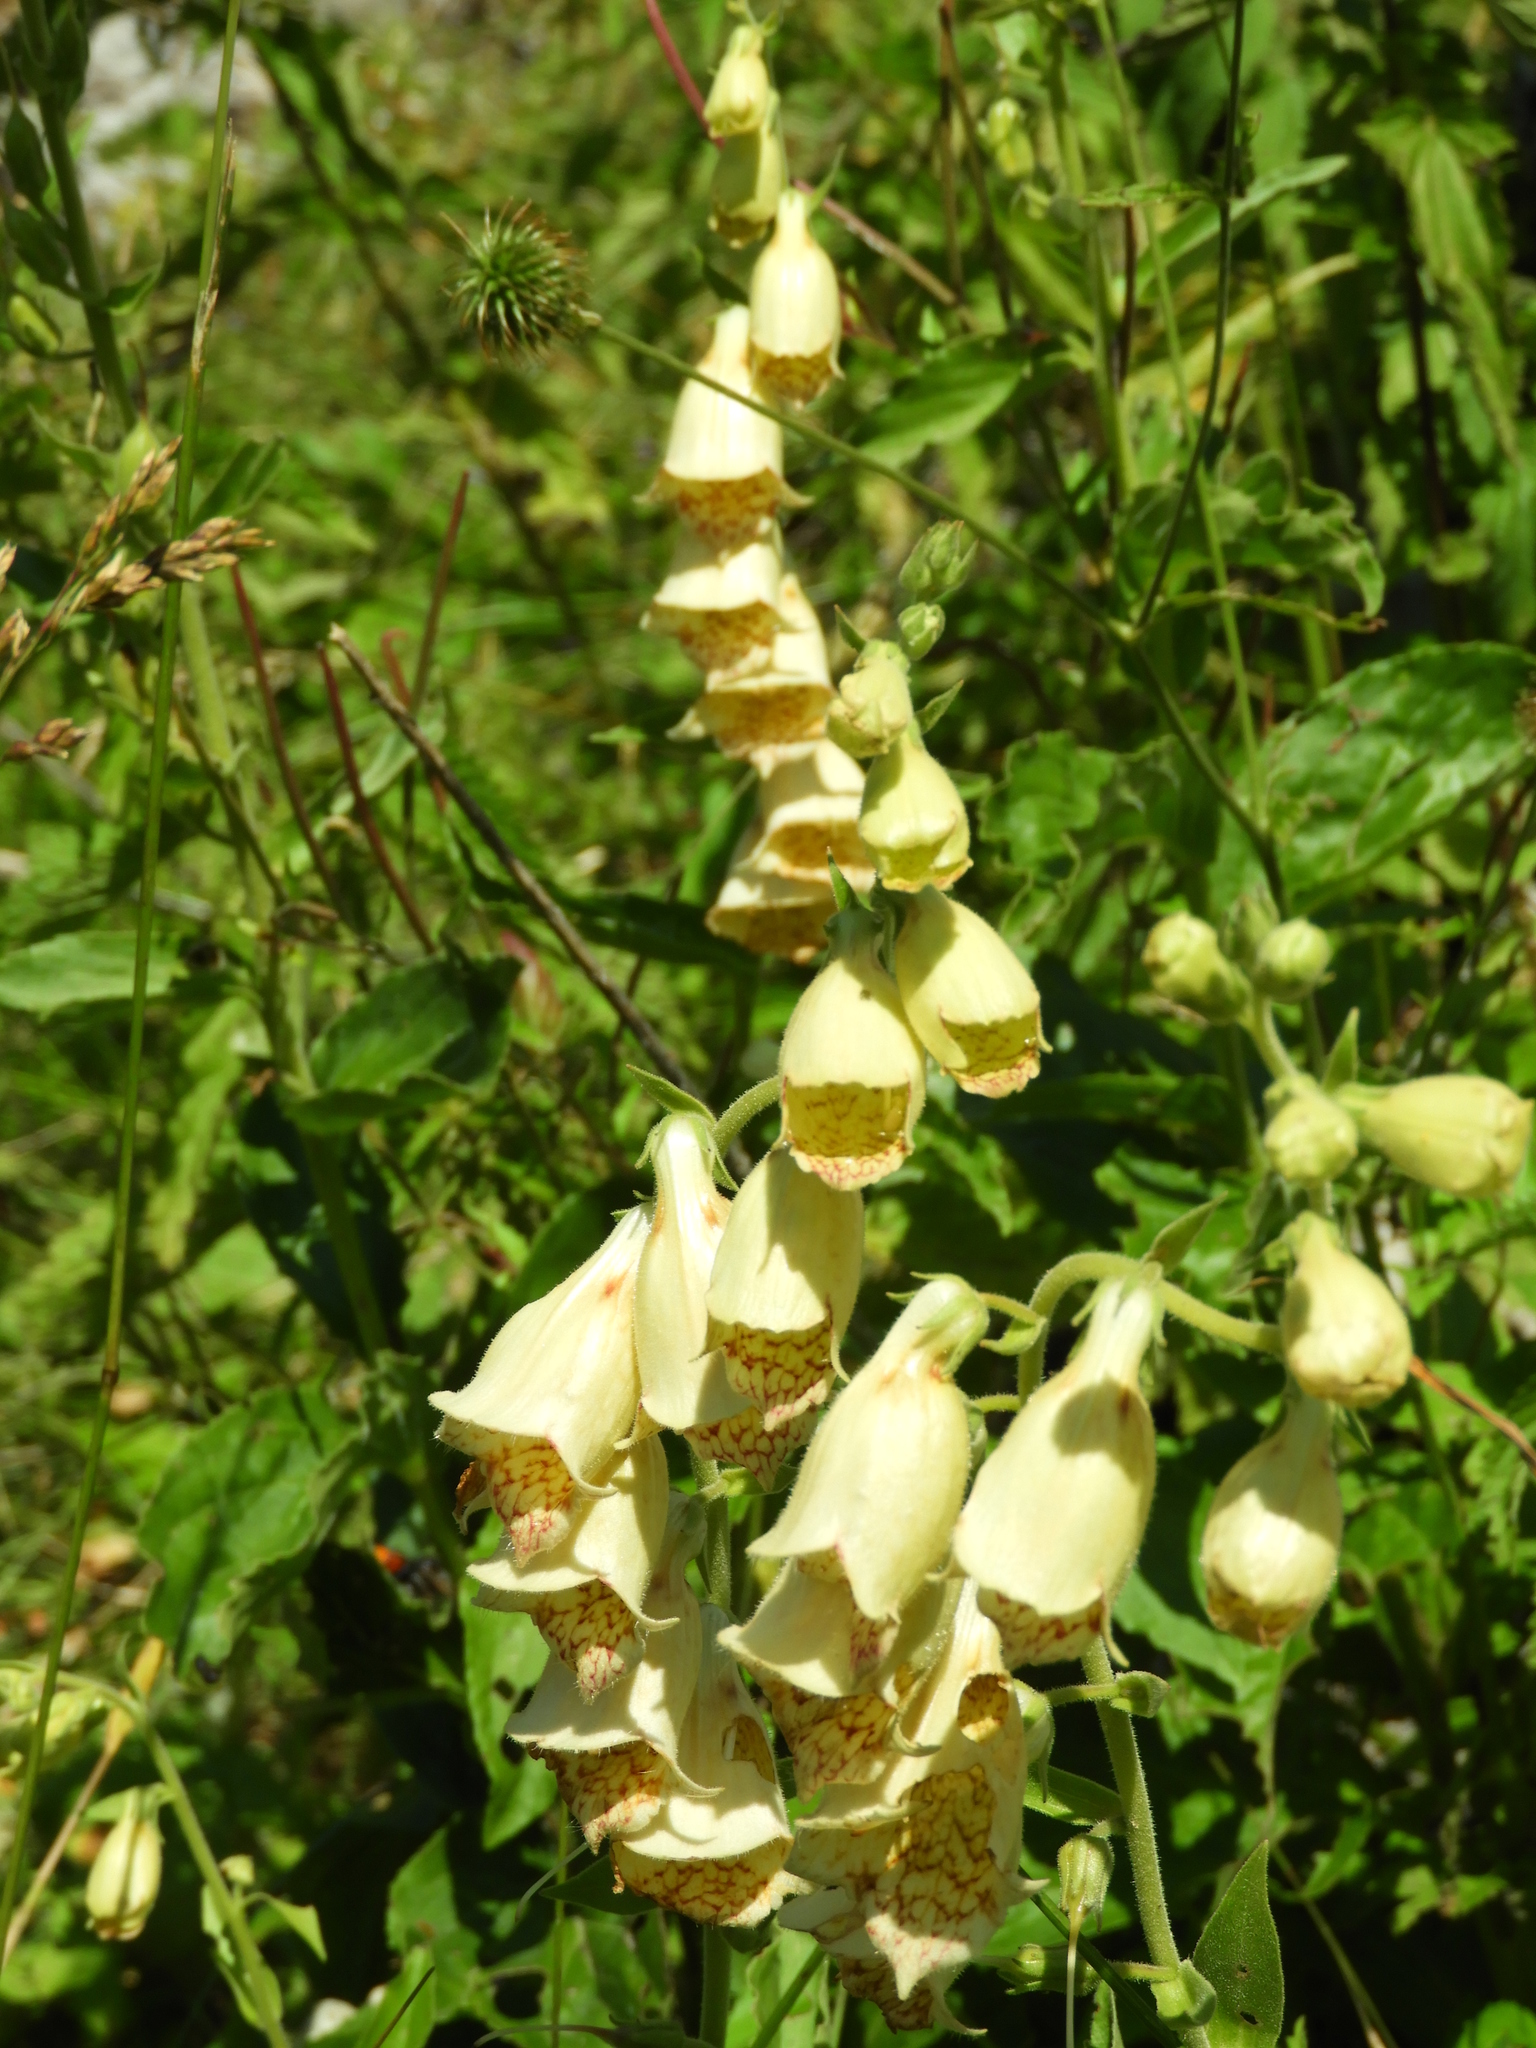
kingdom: Plantae
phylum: Tracheophyta
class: Magnoliopsida
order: Lamiales
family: Plantaginaceae
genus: Digitalis
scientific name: Digitalis grandiflora
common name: Yellow foxglove
